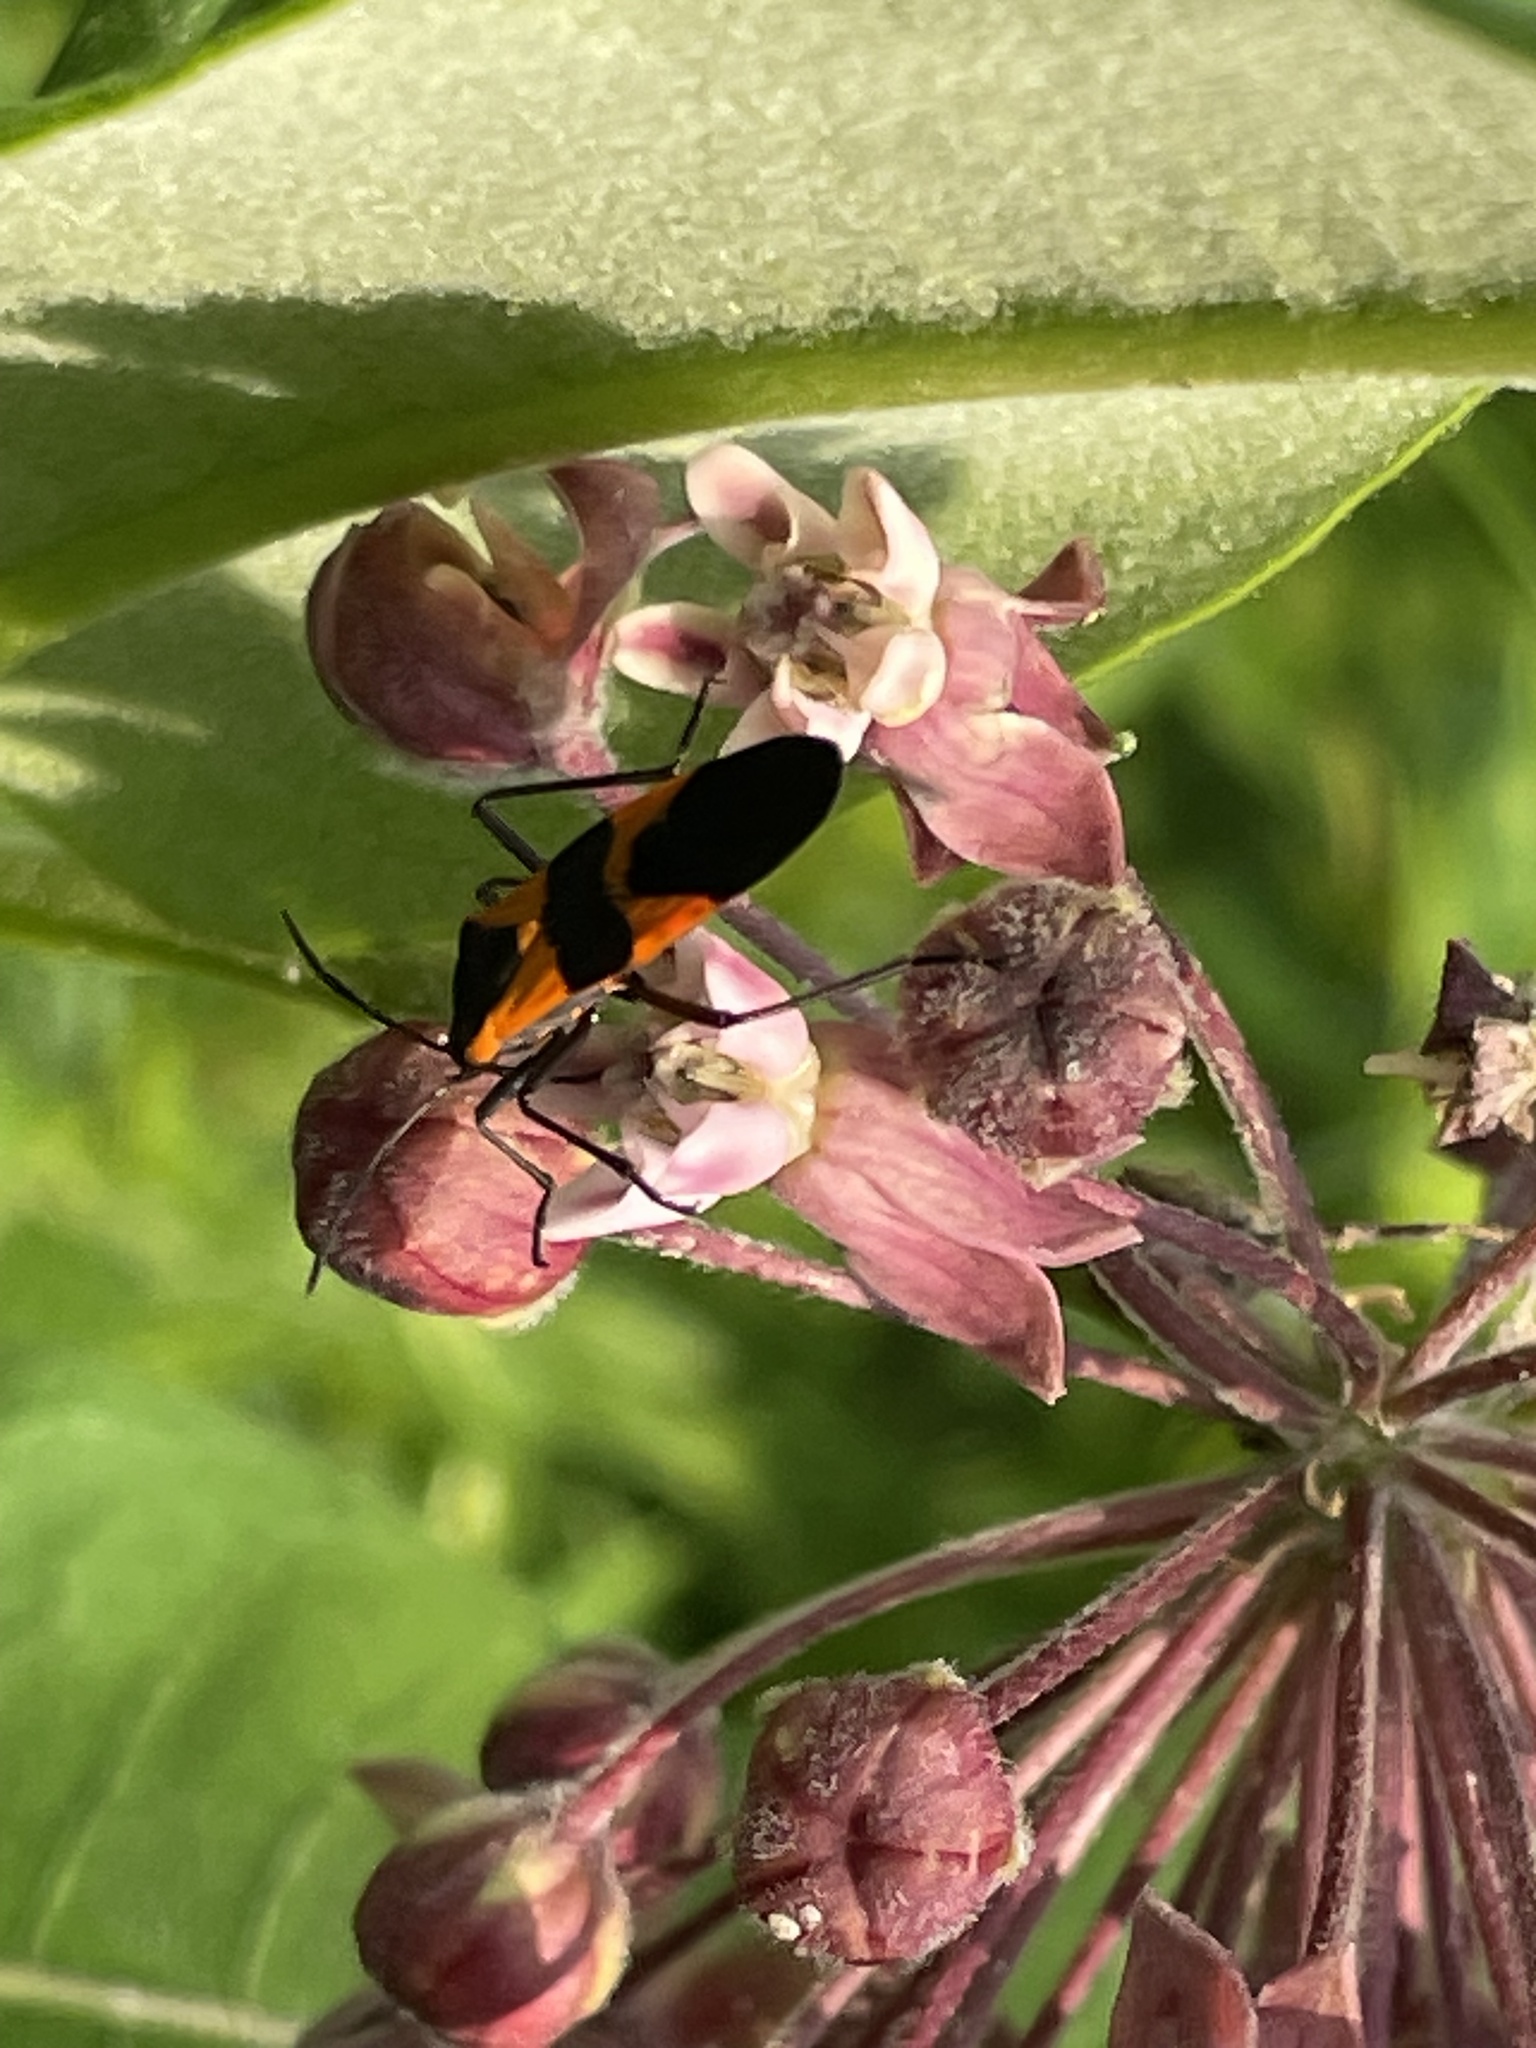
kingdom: Animalia
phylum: Arthropoda
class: Insecta
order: Hemiptera
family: Lygaeidae
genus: Oncopeltus
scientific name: Oncopeltus fasciatus
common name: Large milkweed bug
